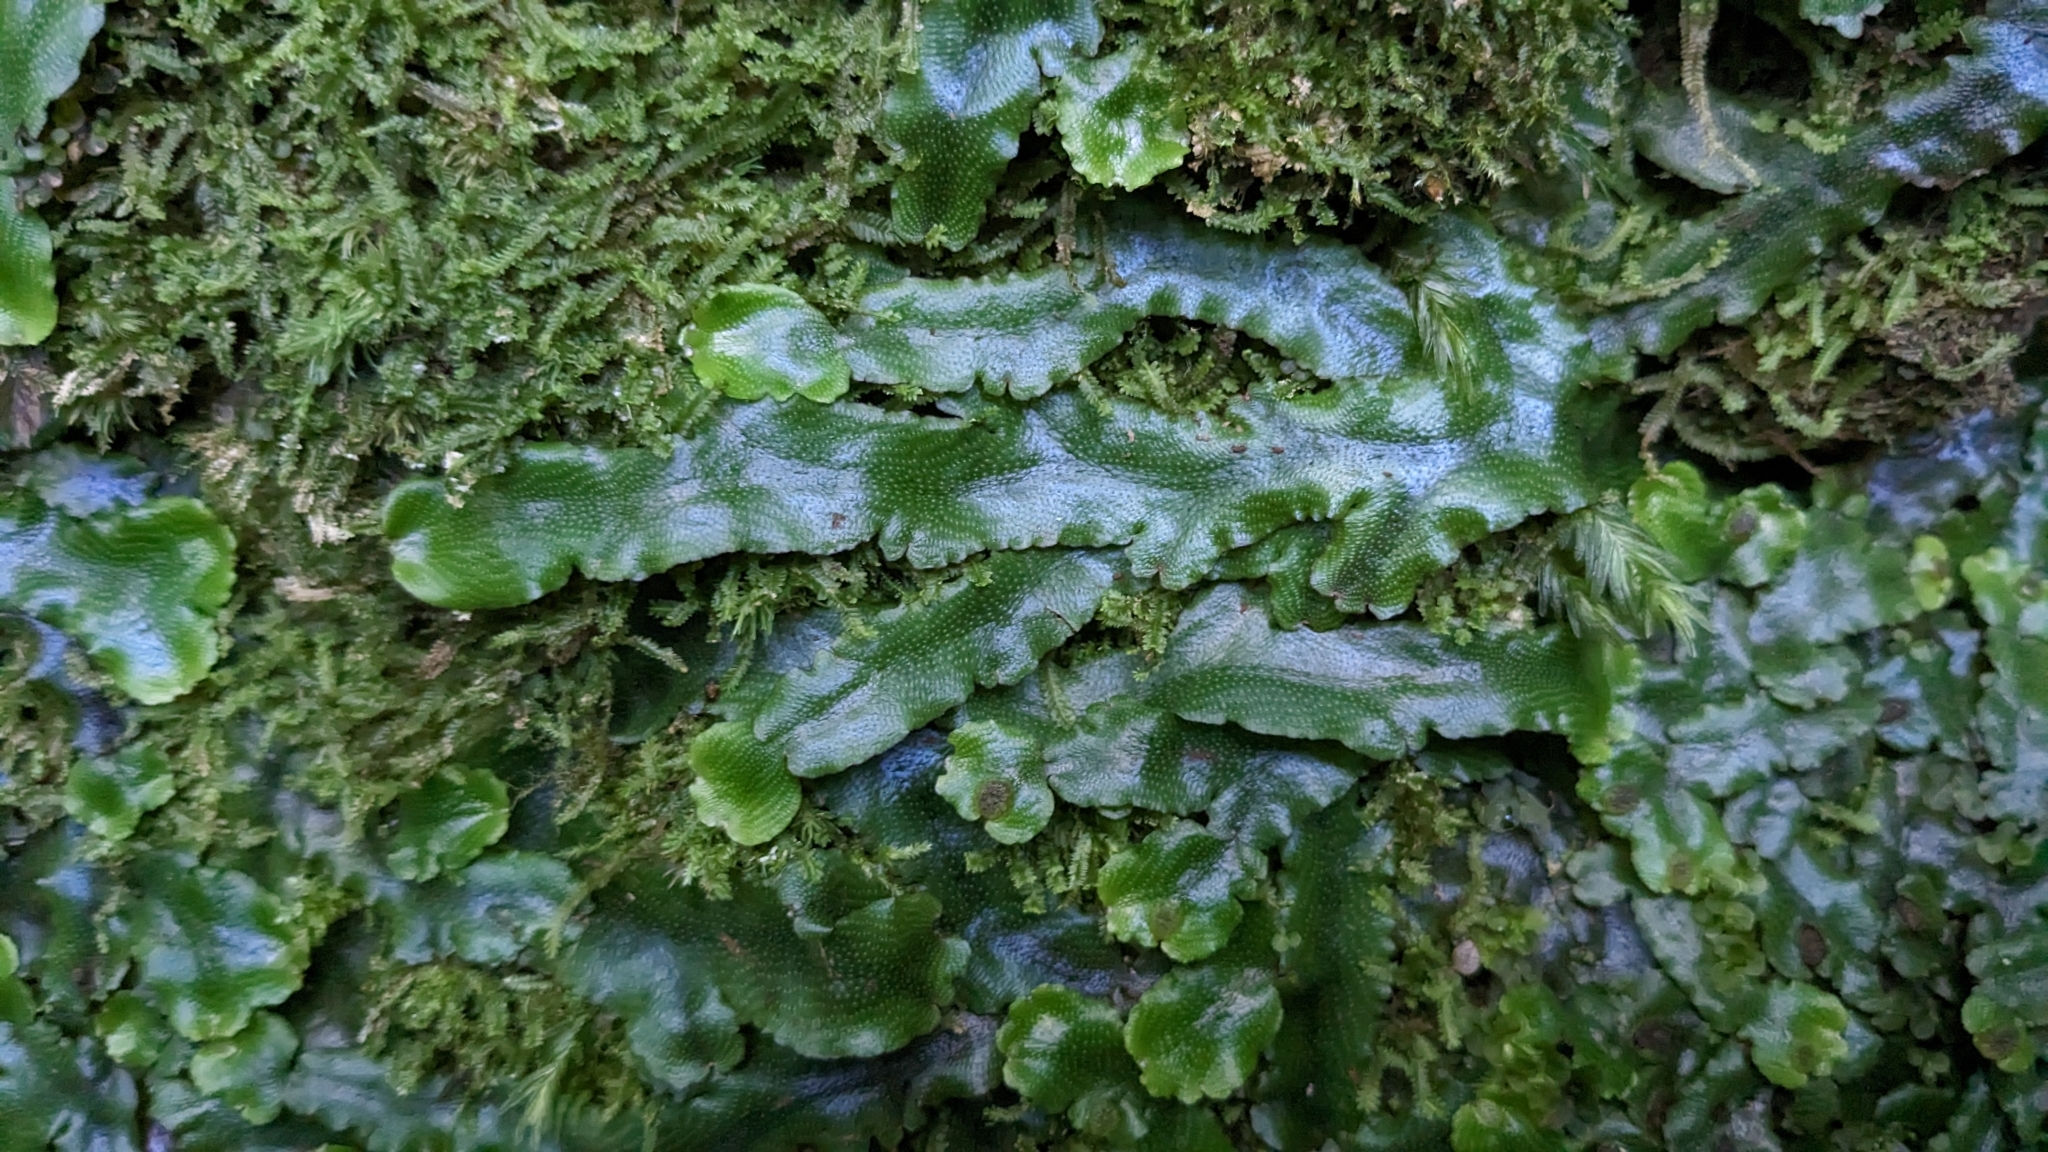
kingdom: Plantae
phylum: Marchantiophyta
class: Marchantiopsida
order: Marchantiales
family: Conocephalaceae
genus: Conocephalum
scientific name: Conocephalum conicum
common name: Great scented liverwort
